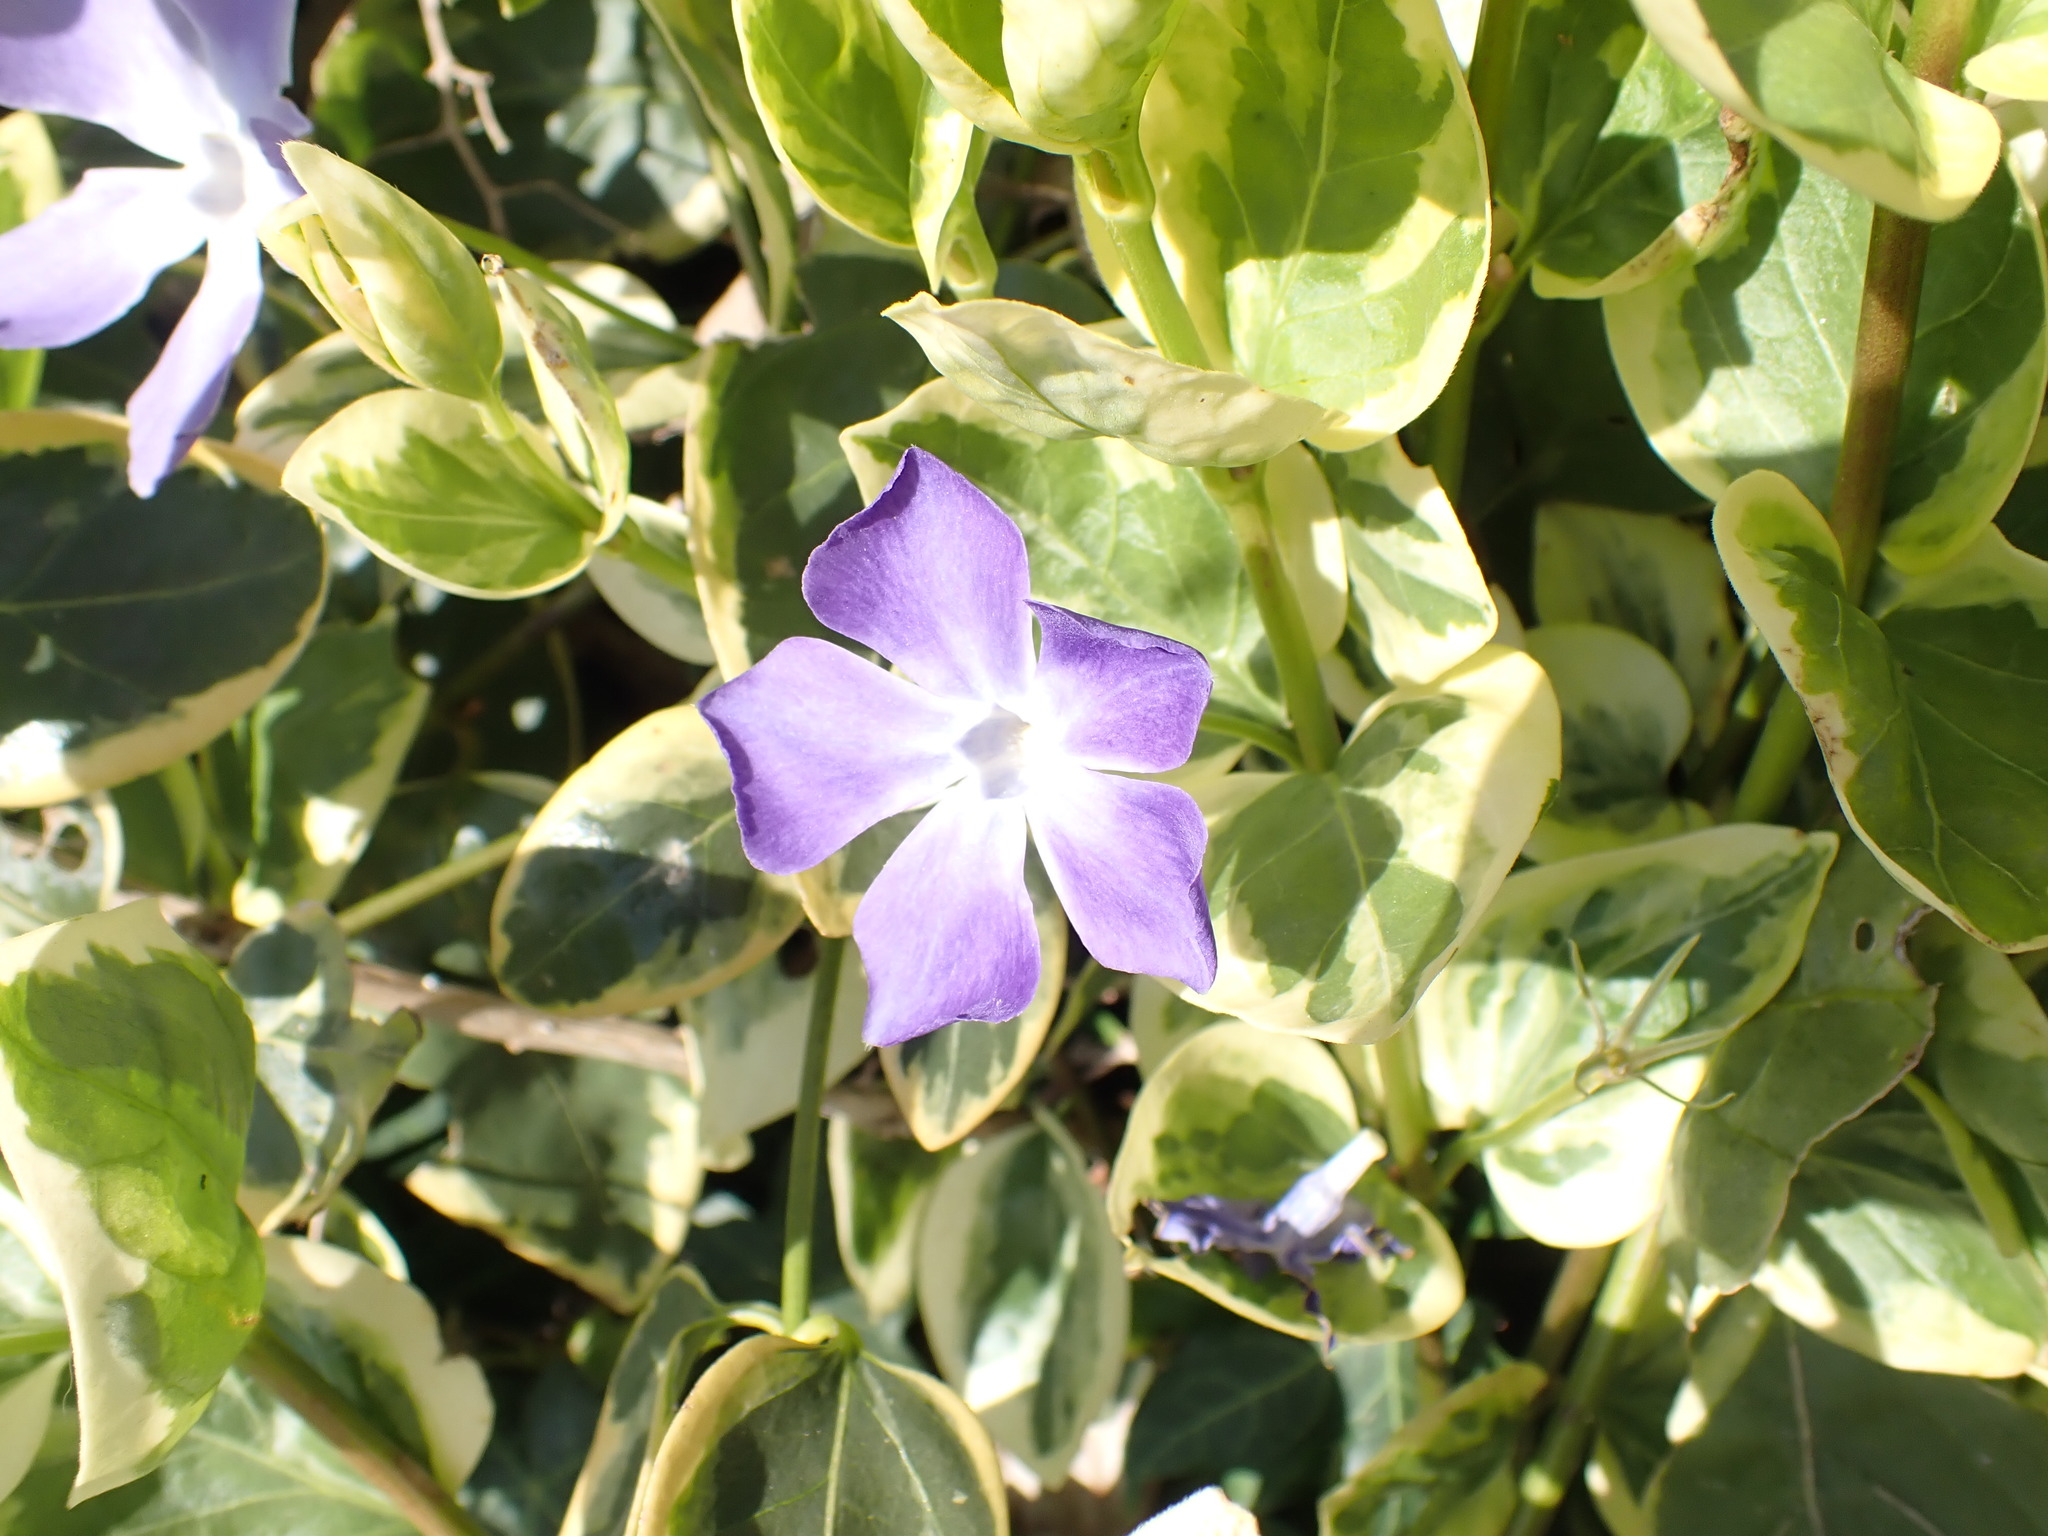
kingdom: Plantae
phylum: Tracheophyta
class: Magnoliopsida
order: Gentianales
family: Apocynaceae
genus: Vinca
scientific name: Vinca major
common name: Greater periwinkle
